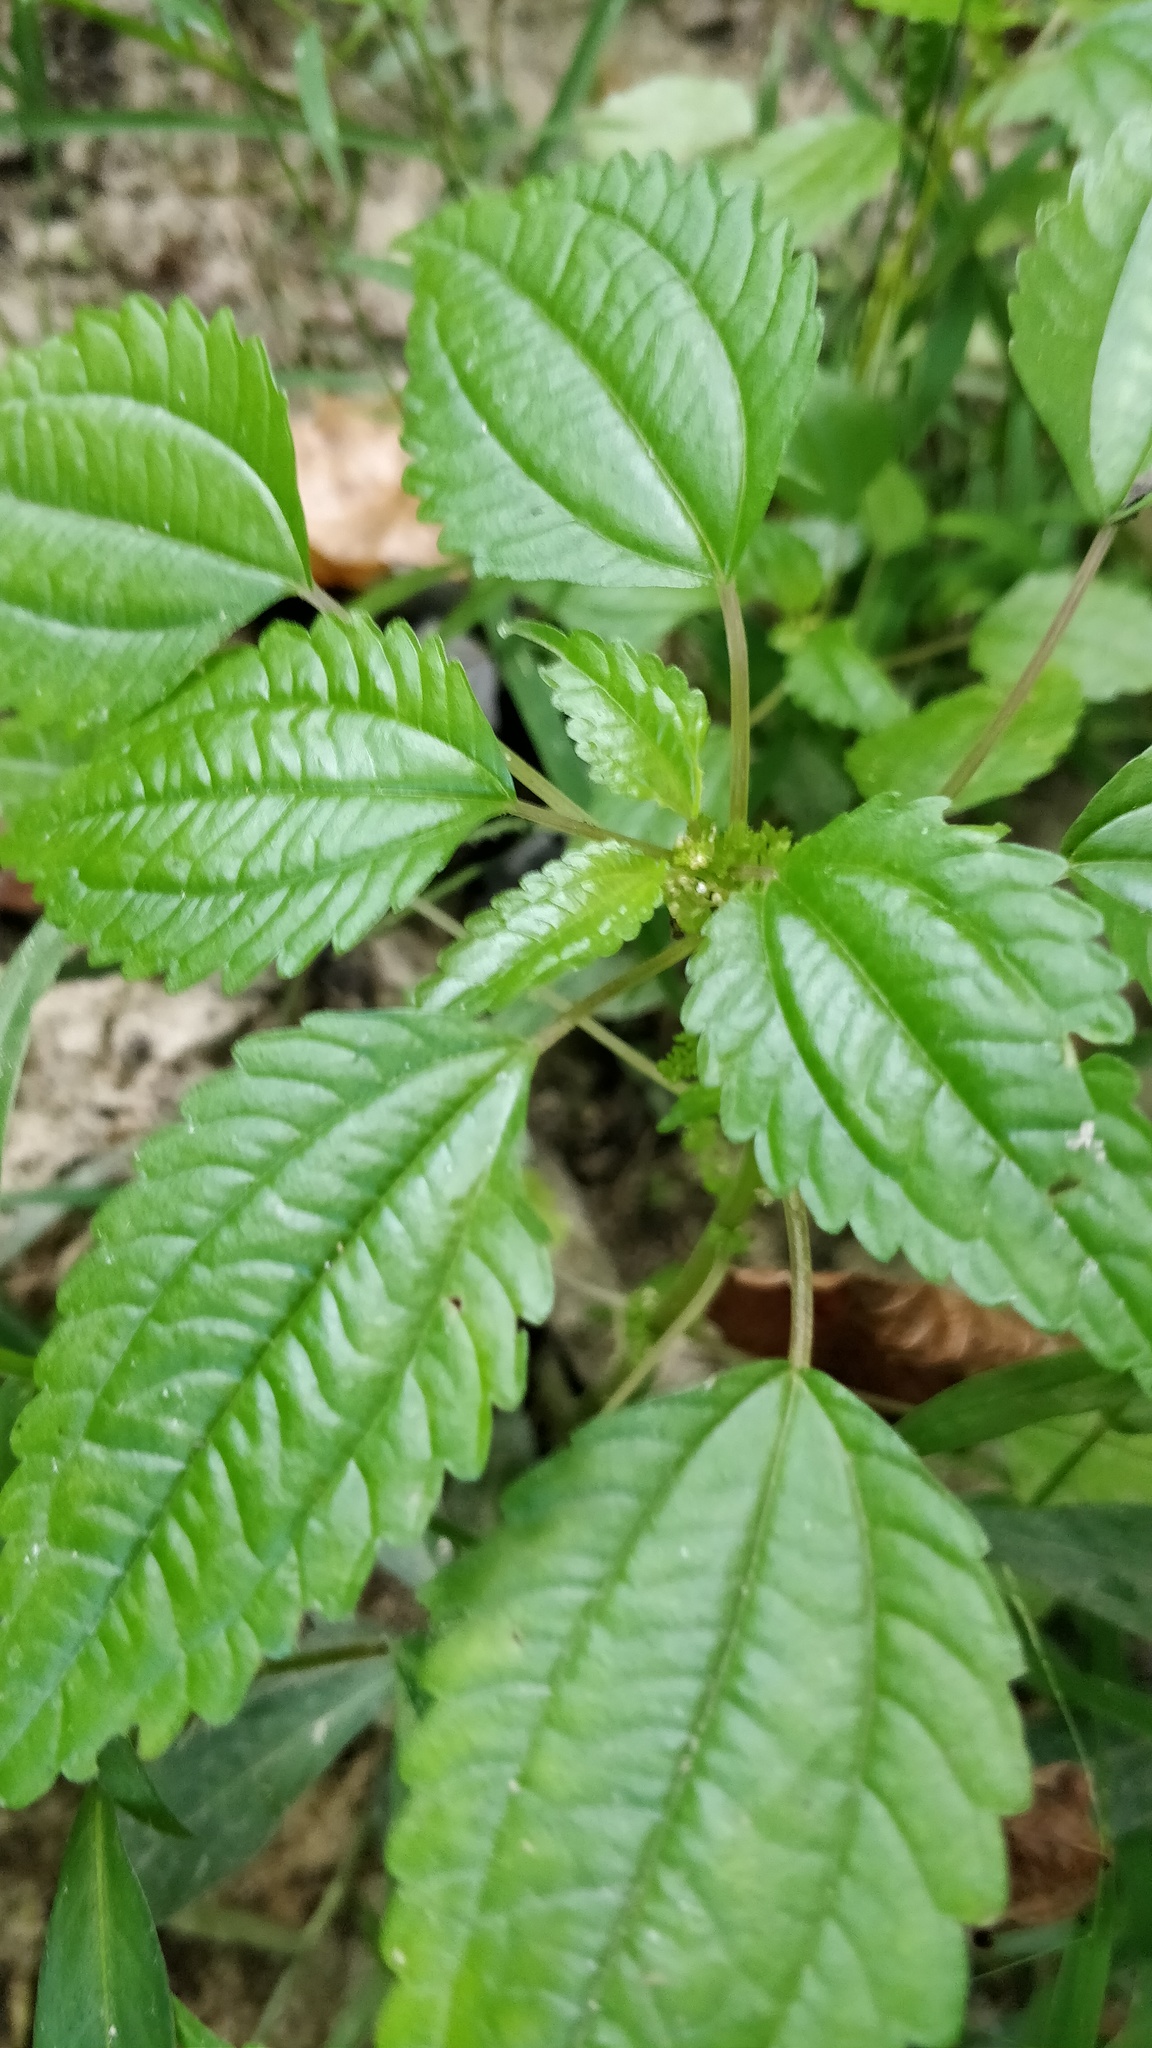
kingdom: Plantae
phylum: Tracheophyta
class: Magnoliopsida
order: Rosales
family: Urticaceae
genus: Pilea
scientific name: Pilea pumila
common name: Clearweed
